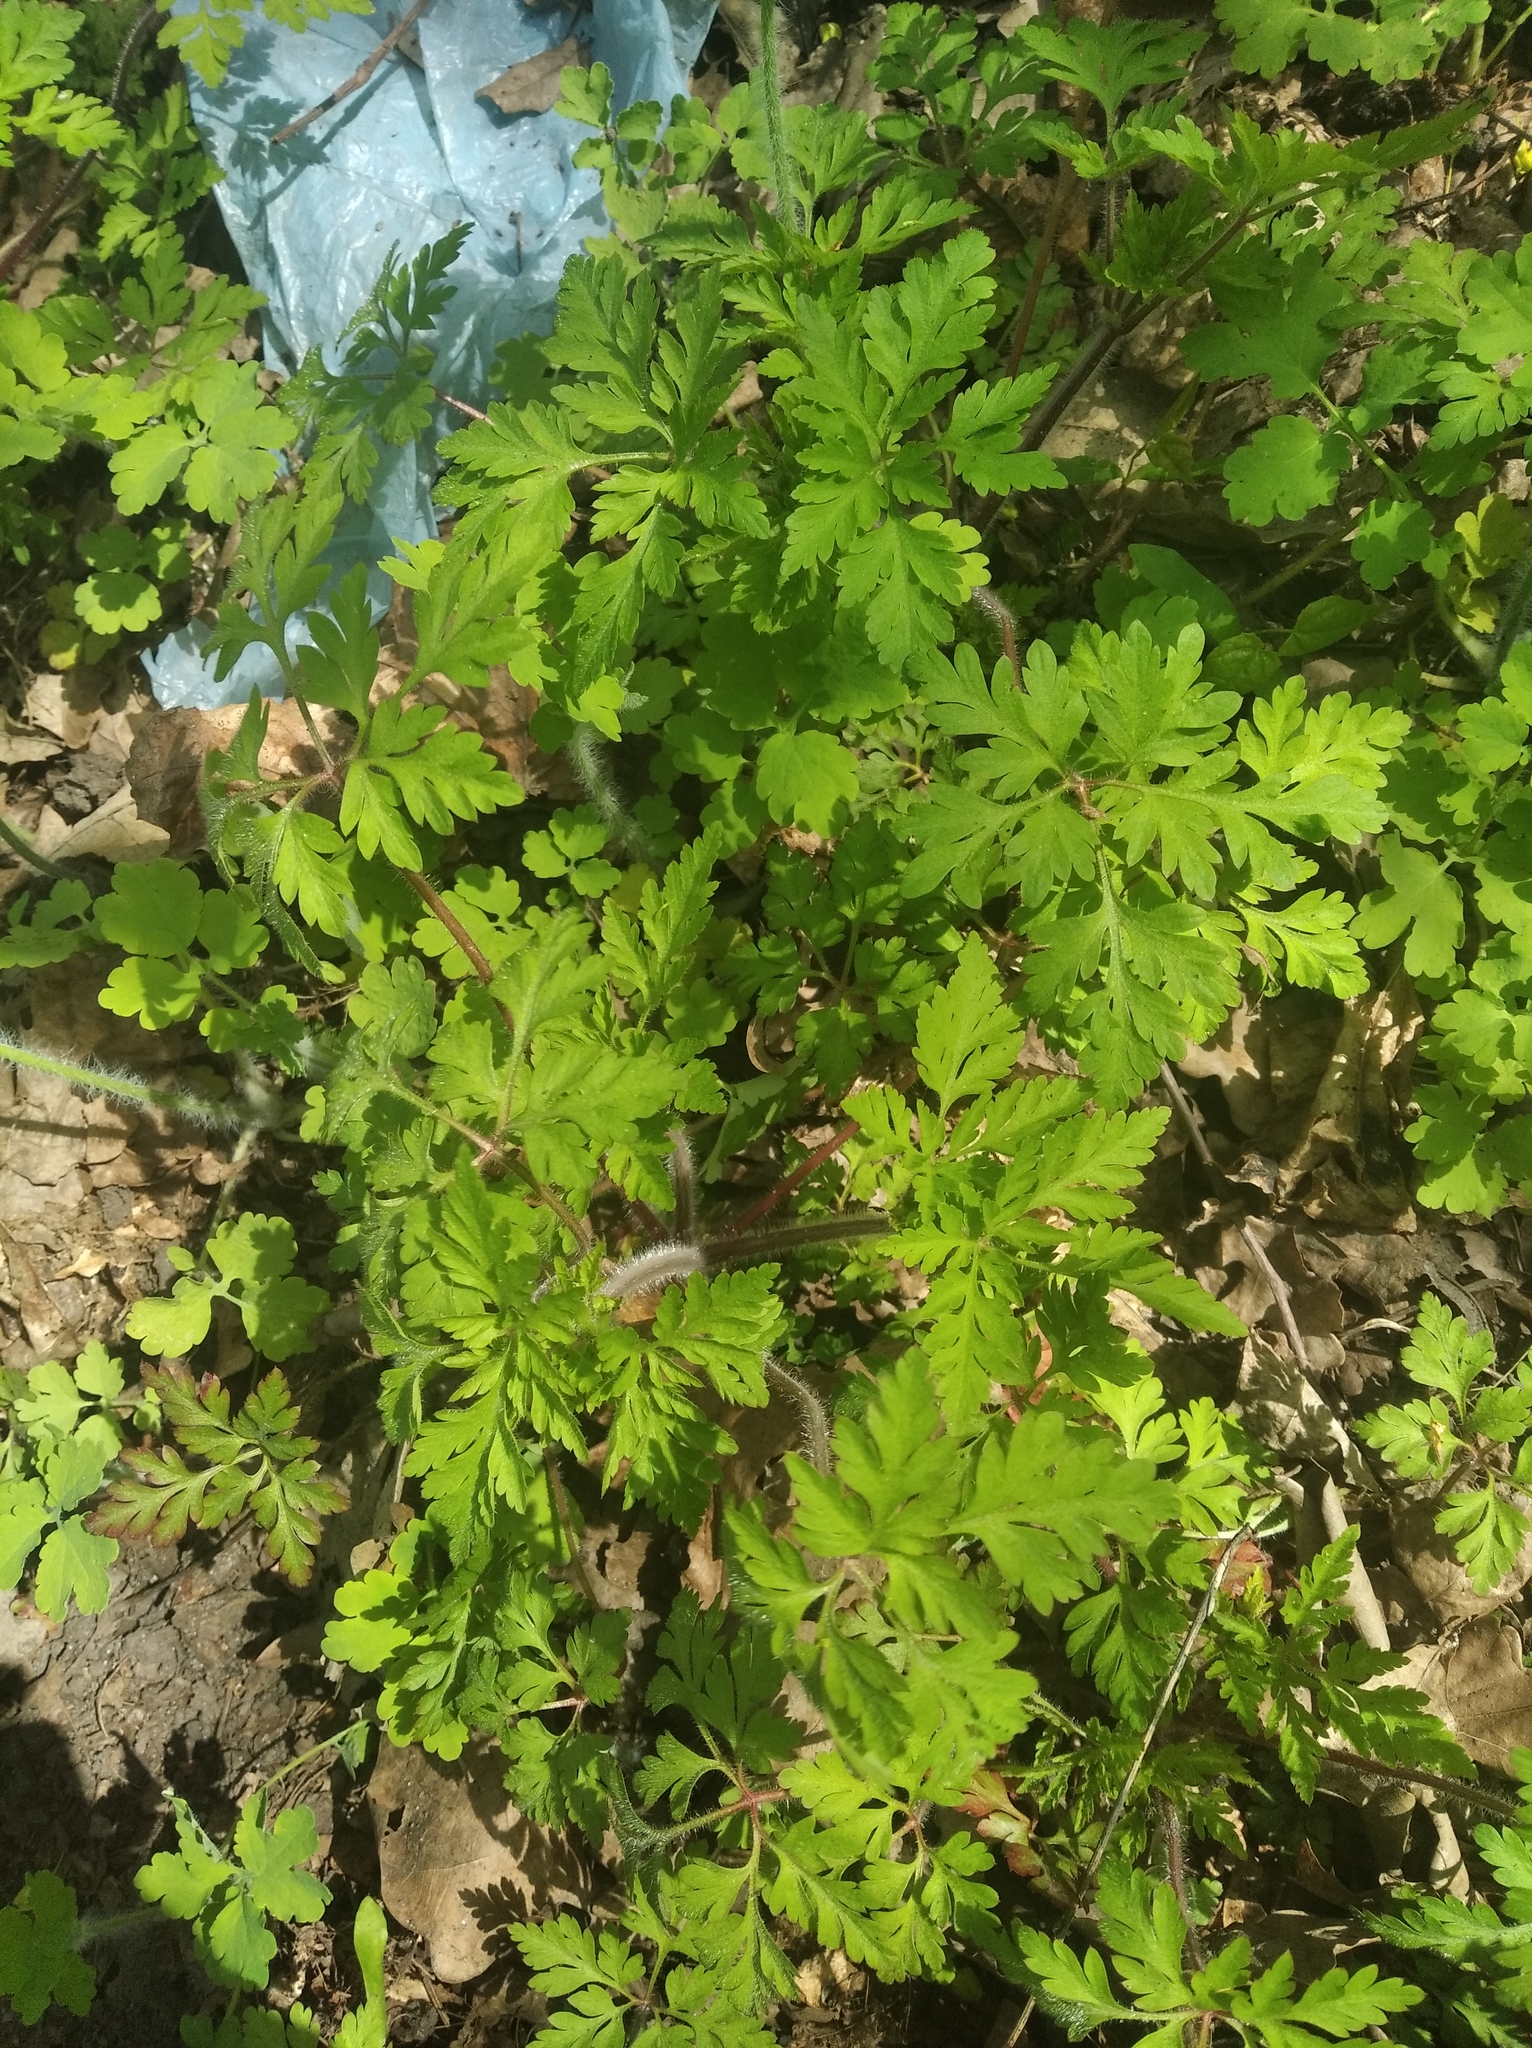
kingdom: Plantae
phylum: Tracheophyta
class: Magnoliopsida
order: Geraniales
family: Geraniaceae
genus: Geranium
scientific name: Geranium robertianum
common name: Herb-robert
